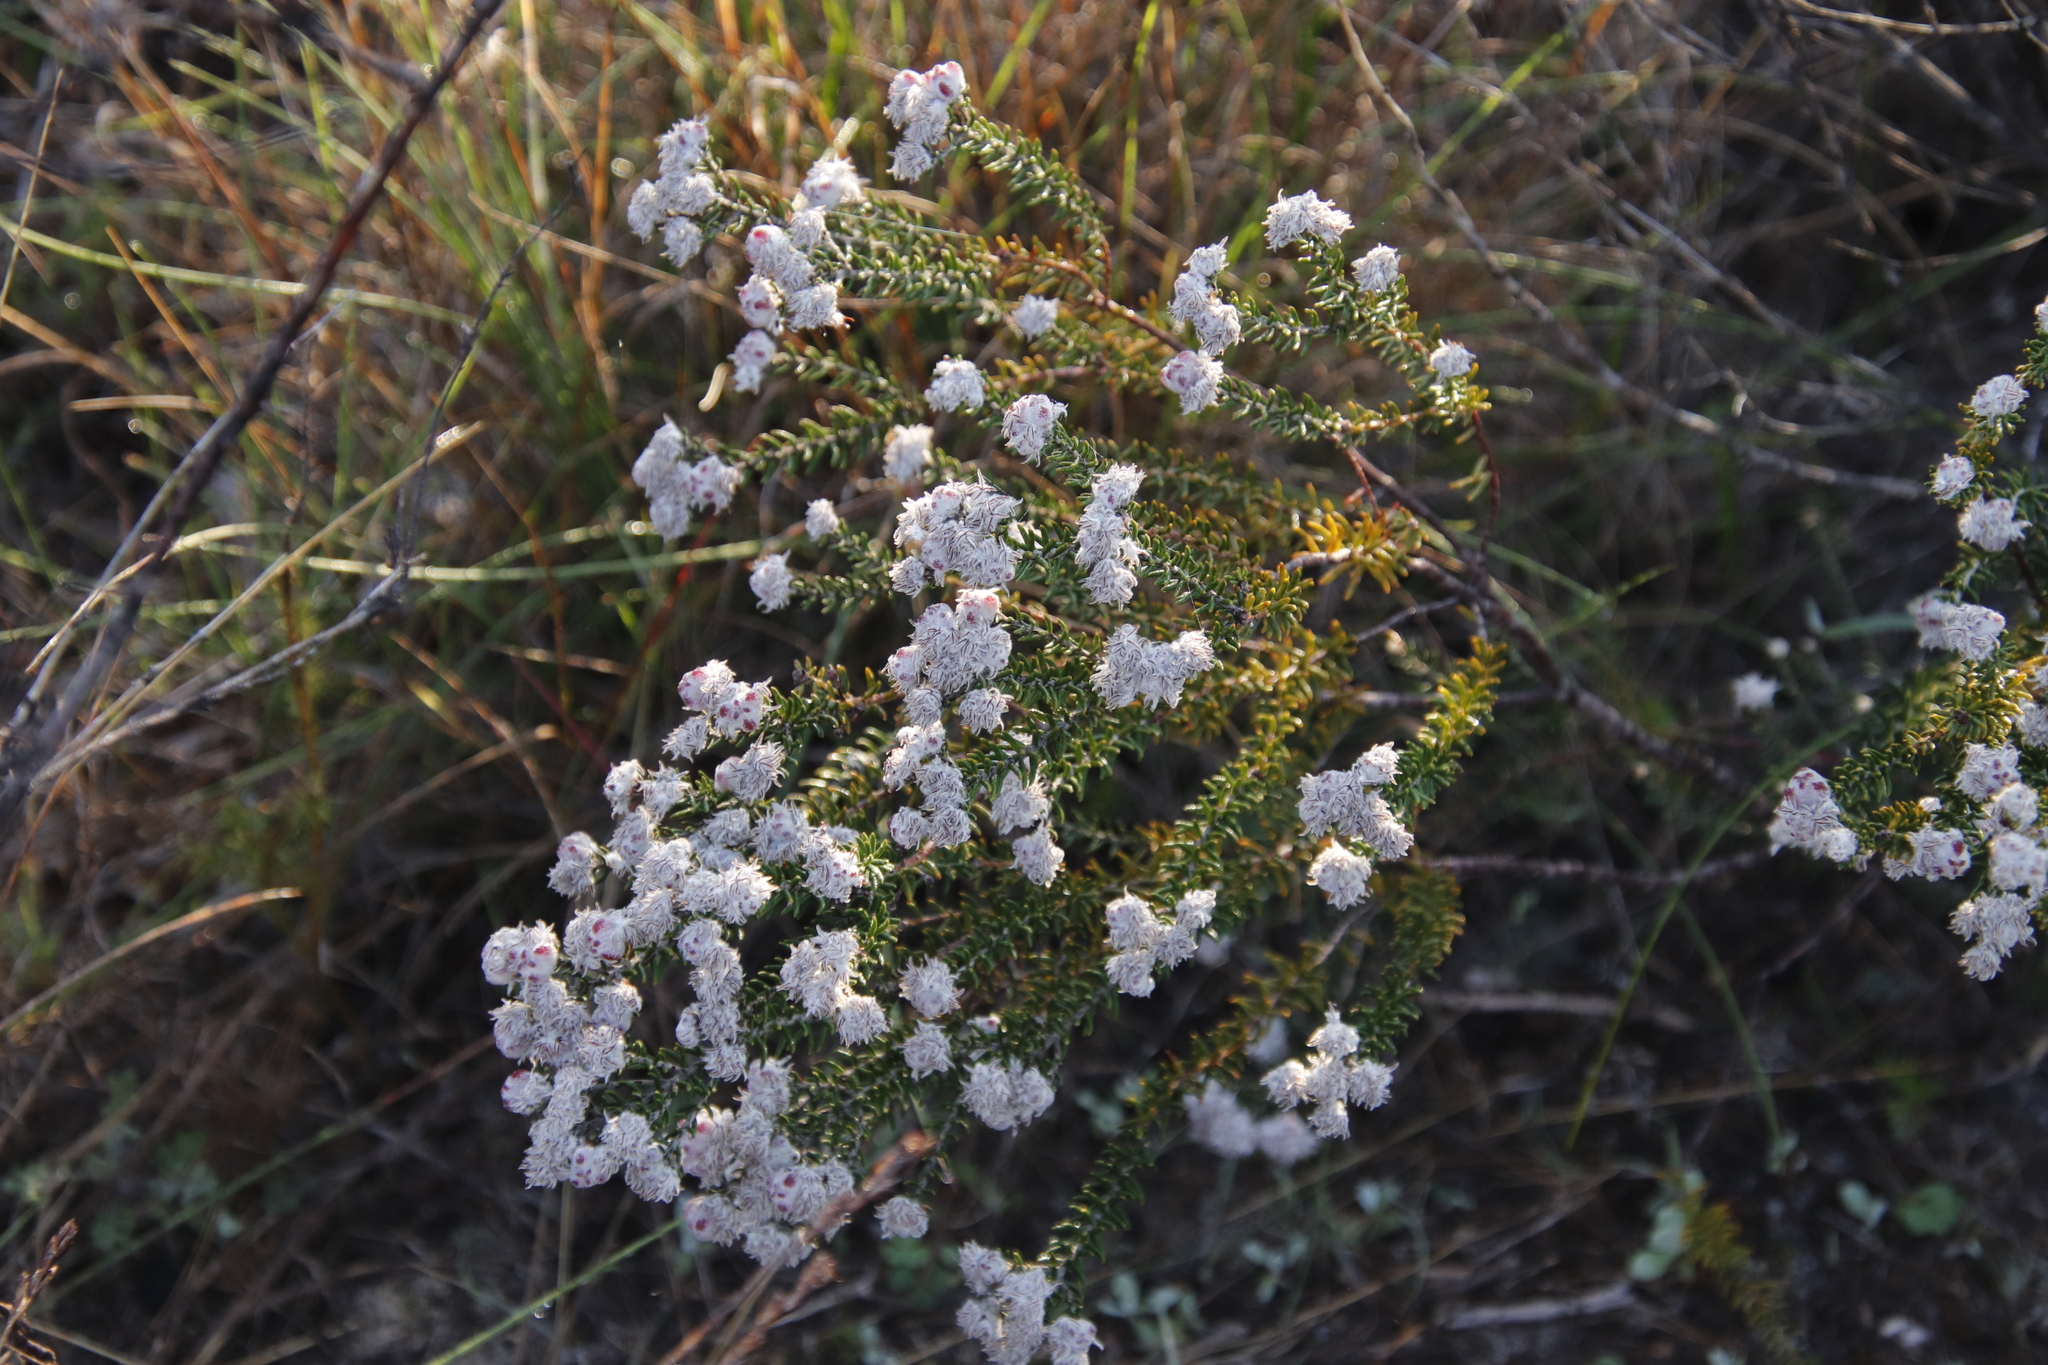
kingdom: Plantae
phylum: Tracheophyta
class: Magnoliopsida
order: Rosales
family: Rhamnaceae
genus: Trichocephalus
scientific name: Trichocephalus stipularis
